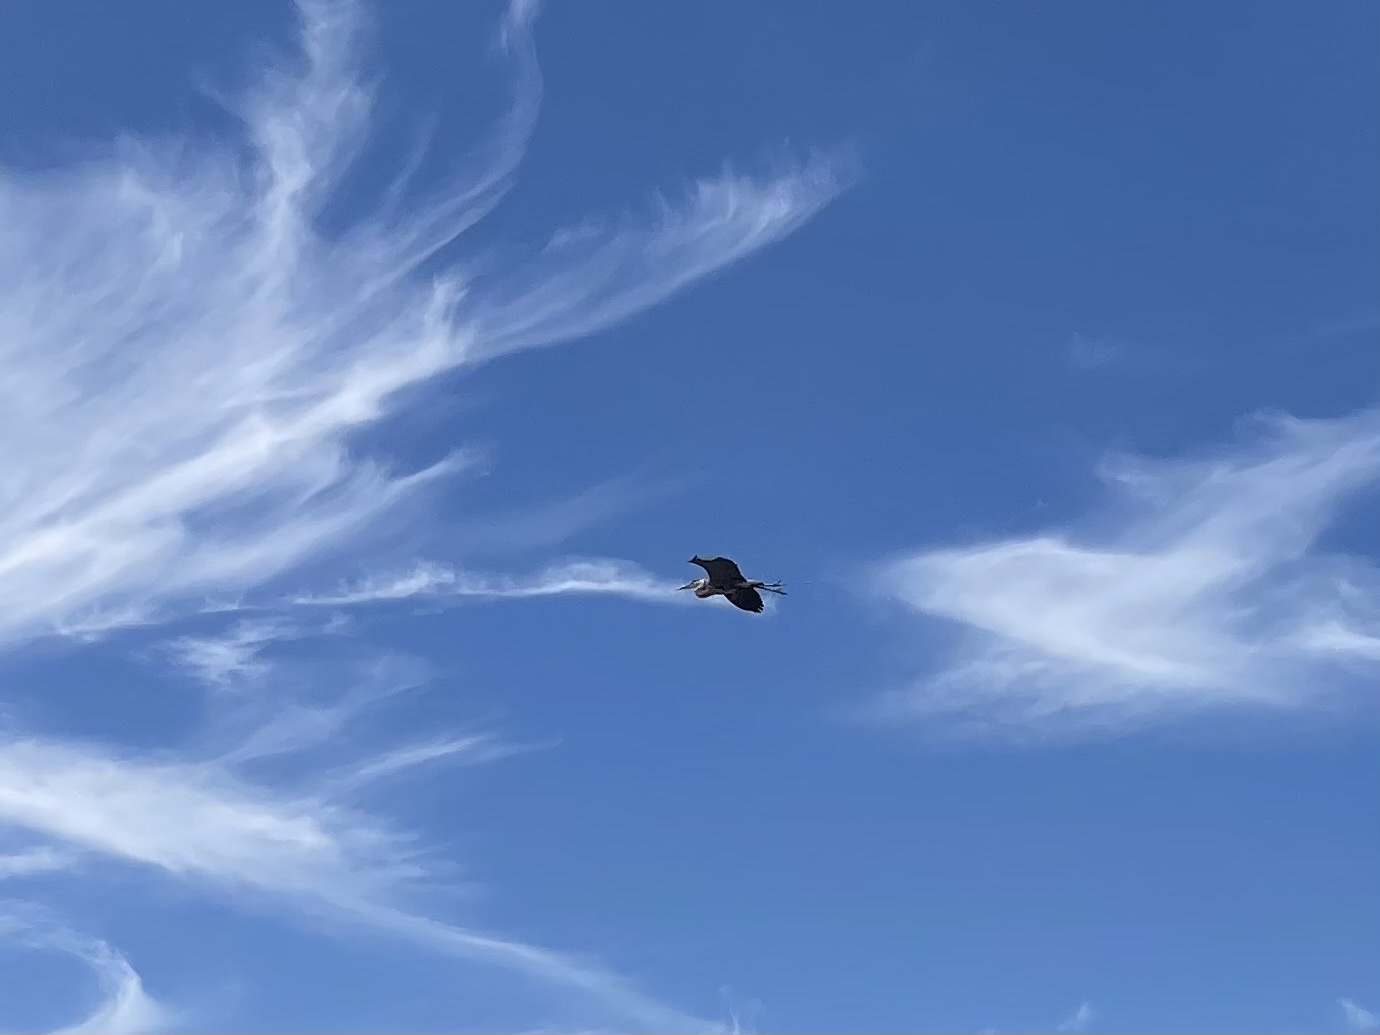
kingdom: Animalia
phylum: Chordata
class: Aves
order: Pelecaniformes
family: Ardeidae
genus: Ardea
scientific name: Ardea herodias
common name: Great blue heron
